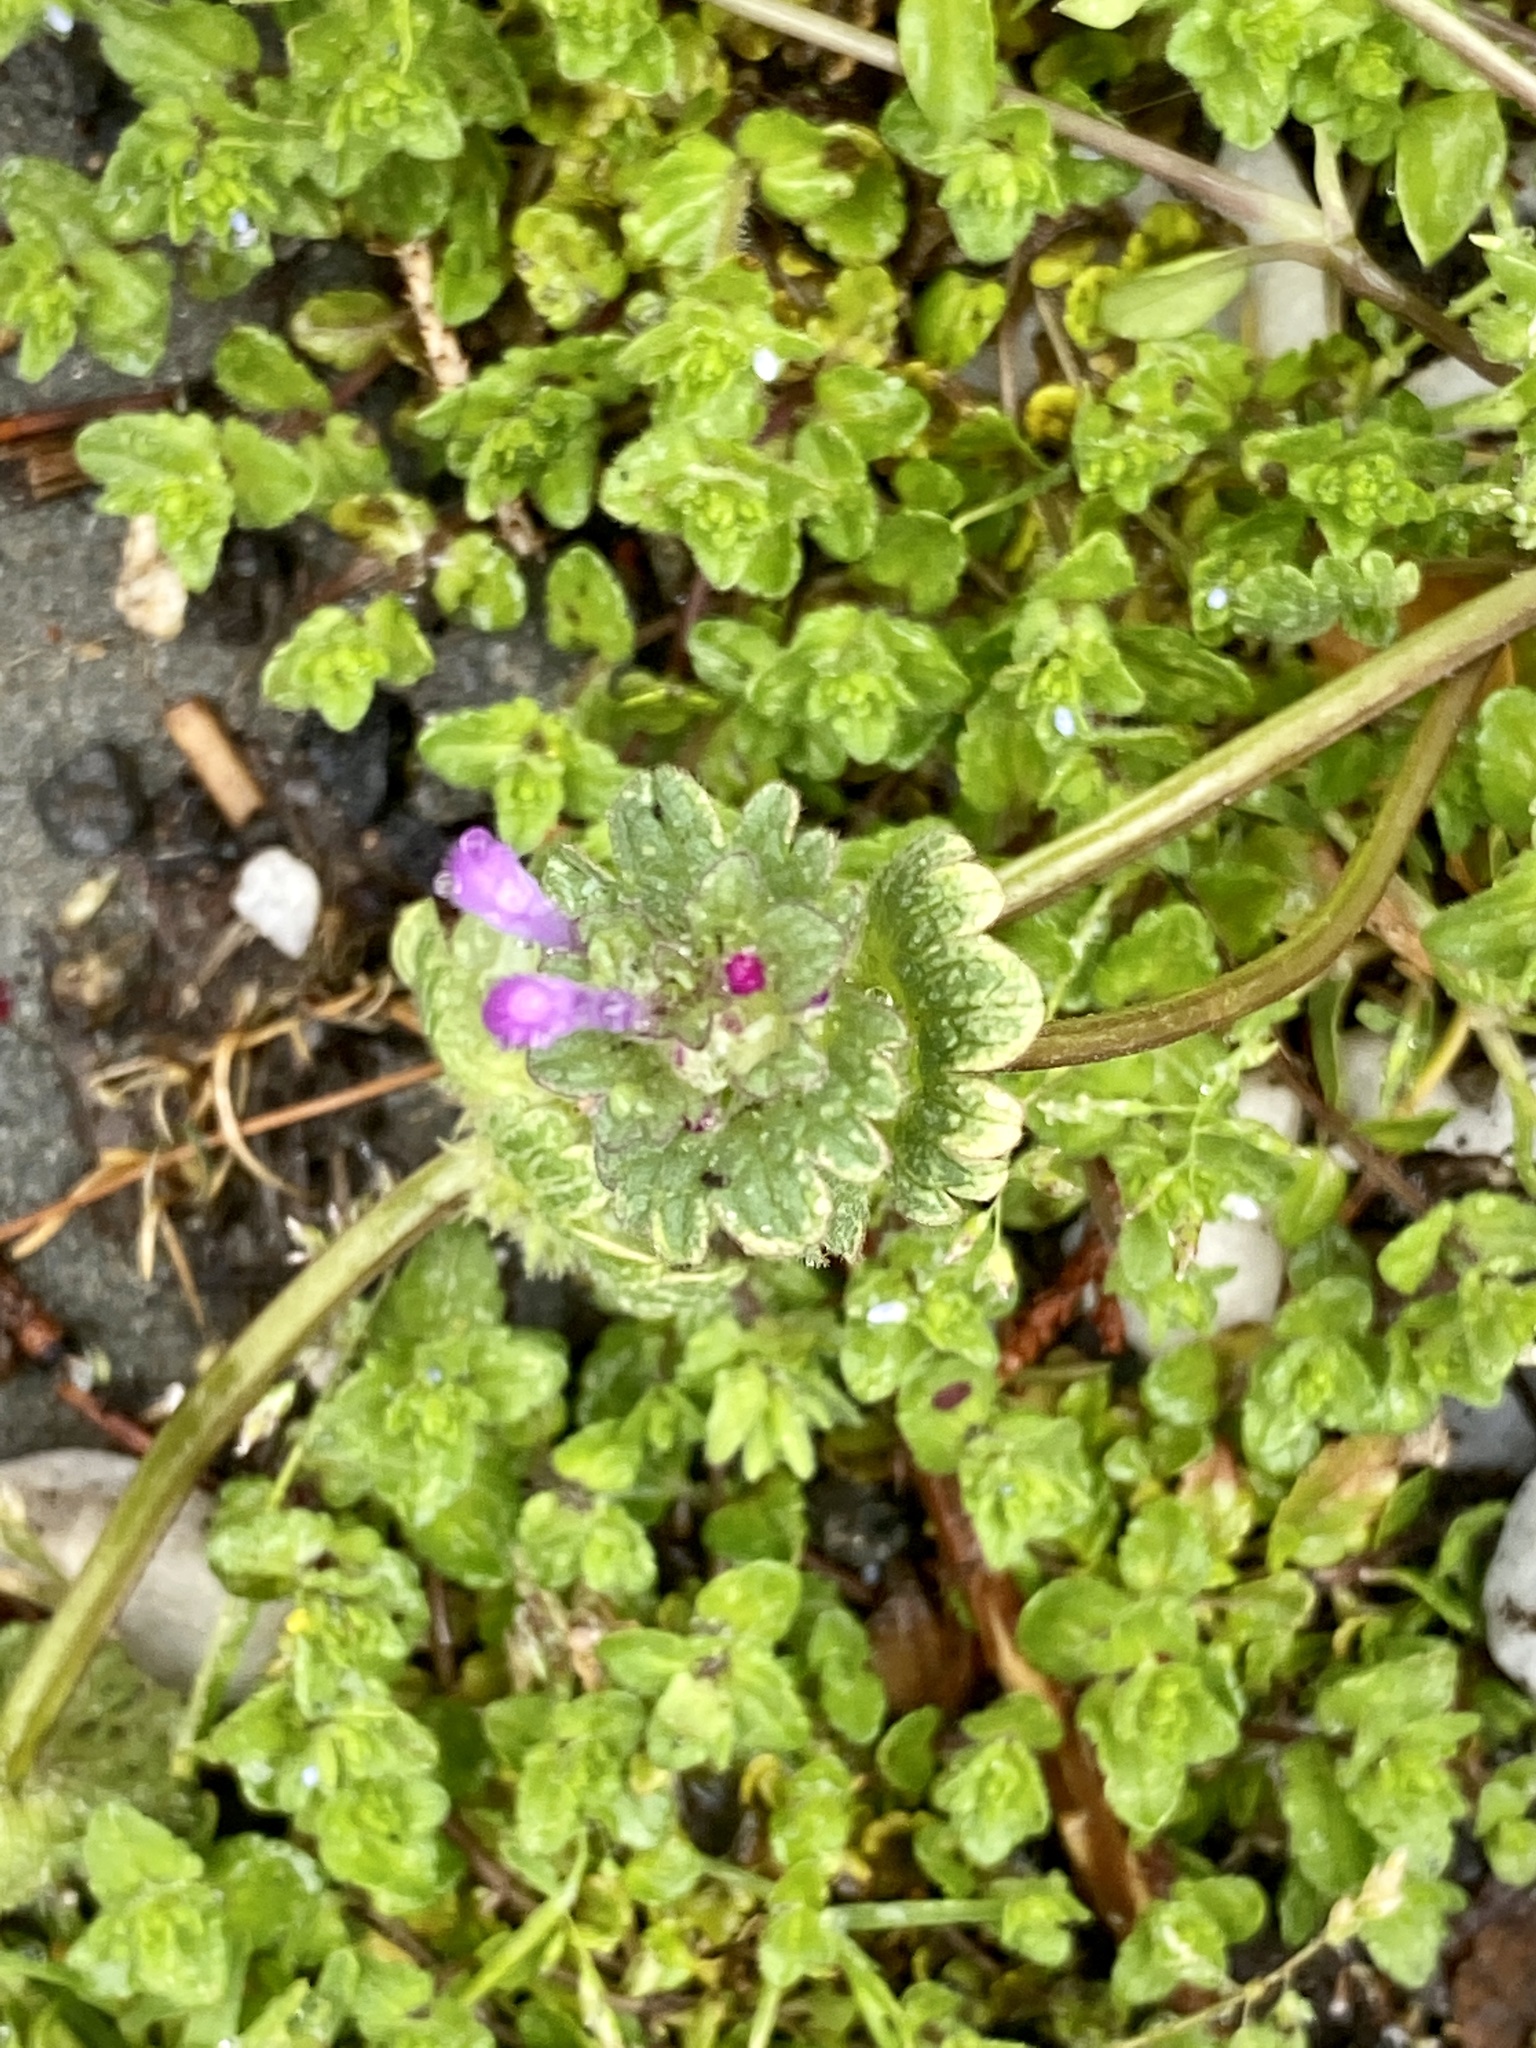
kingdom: Plantae
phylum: Tracheophyta
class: Magnoliopsida
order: Lamiales
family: Lamiaceae
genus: Lamium
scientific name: Lamium amplexicaule
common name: Henbit dead-nettle
